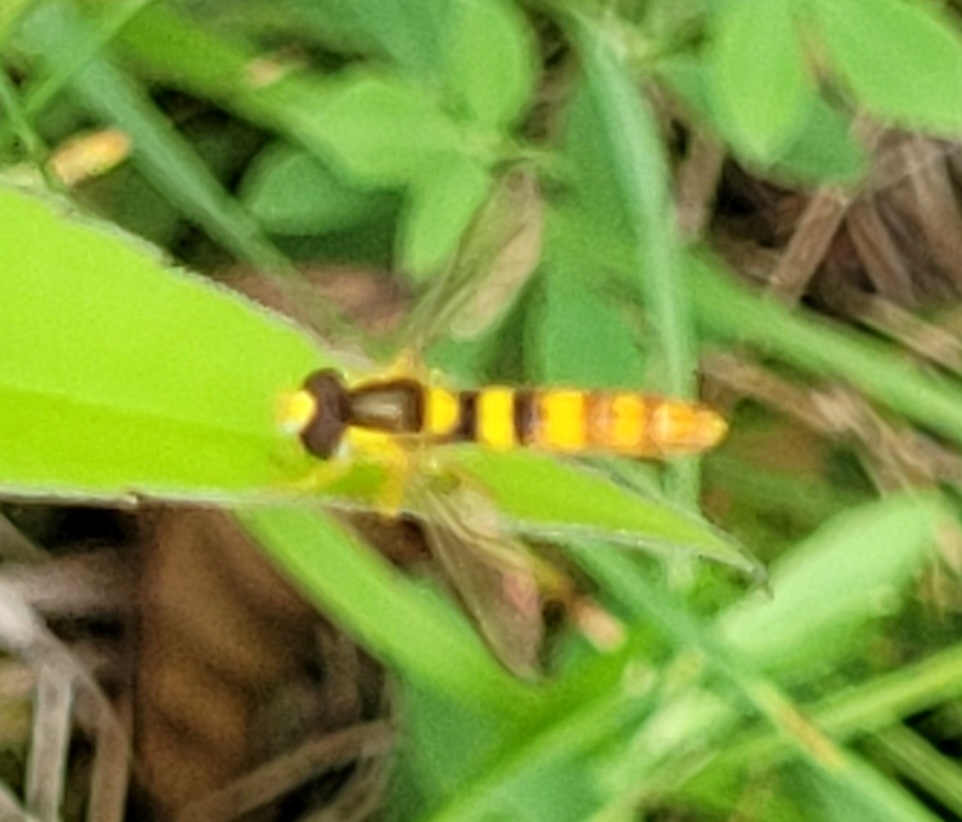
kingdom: Animalia
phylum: Arthropoda
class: Insecta
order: Diptera
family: Syrphidae
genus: Sphaerophoria
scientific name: Sphaerophoria scripta
